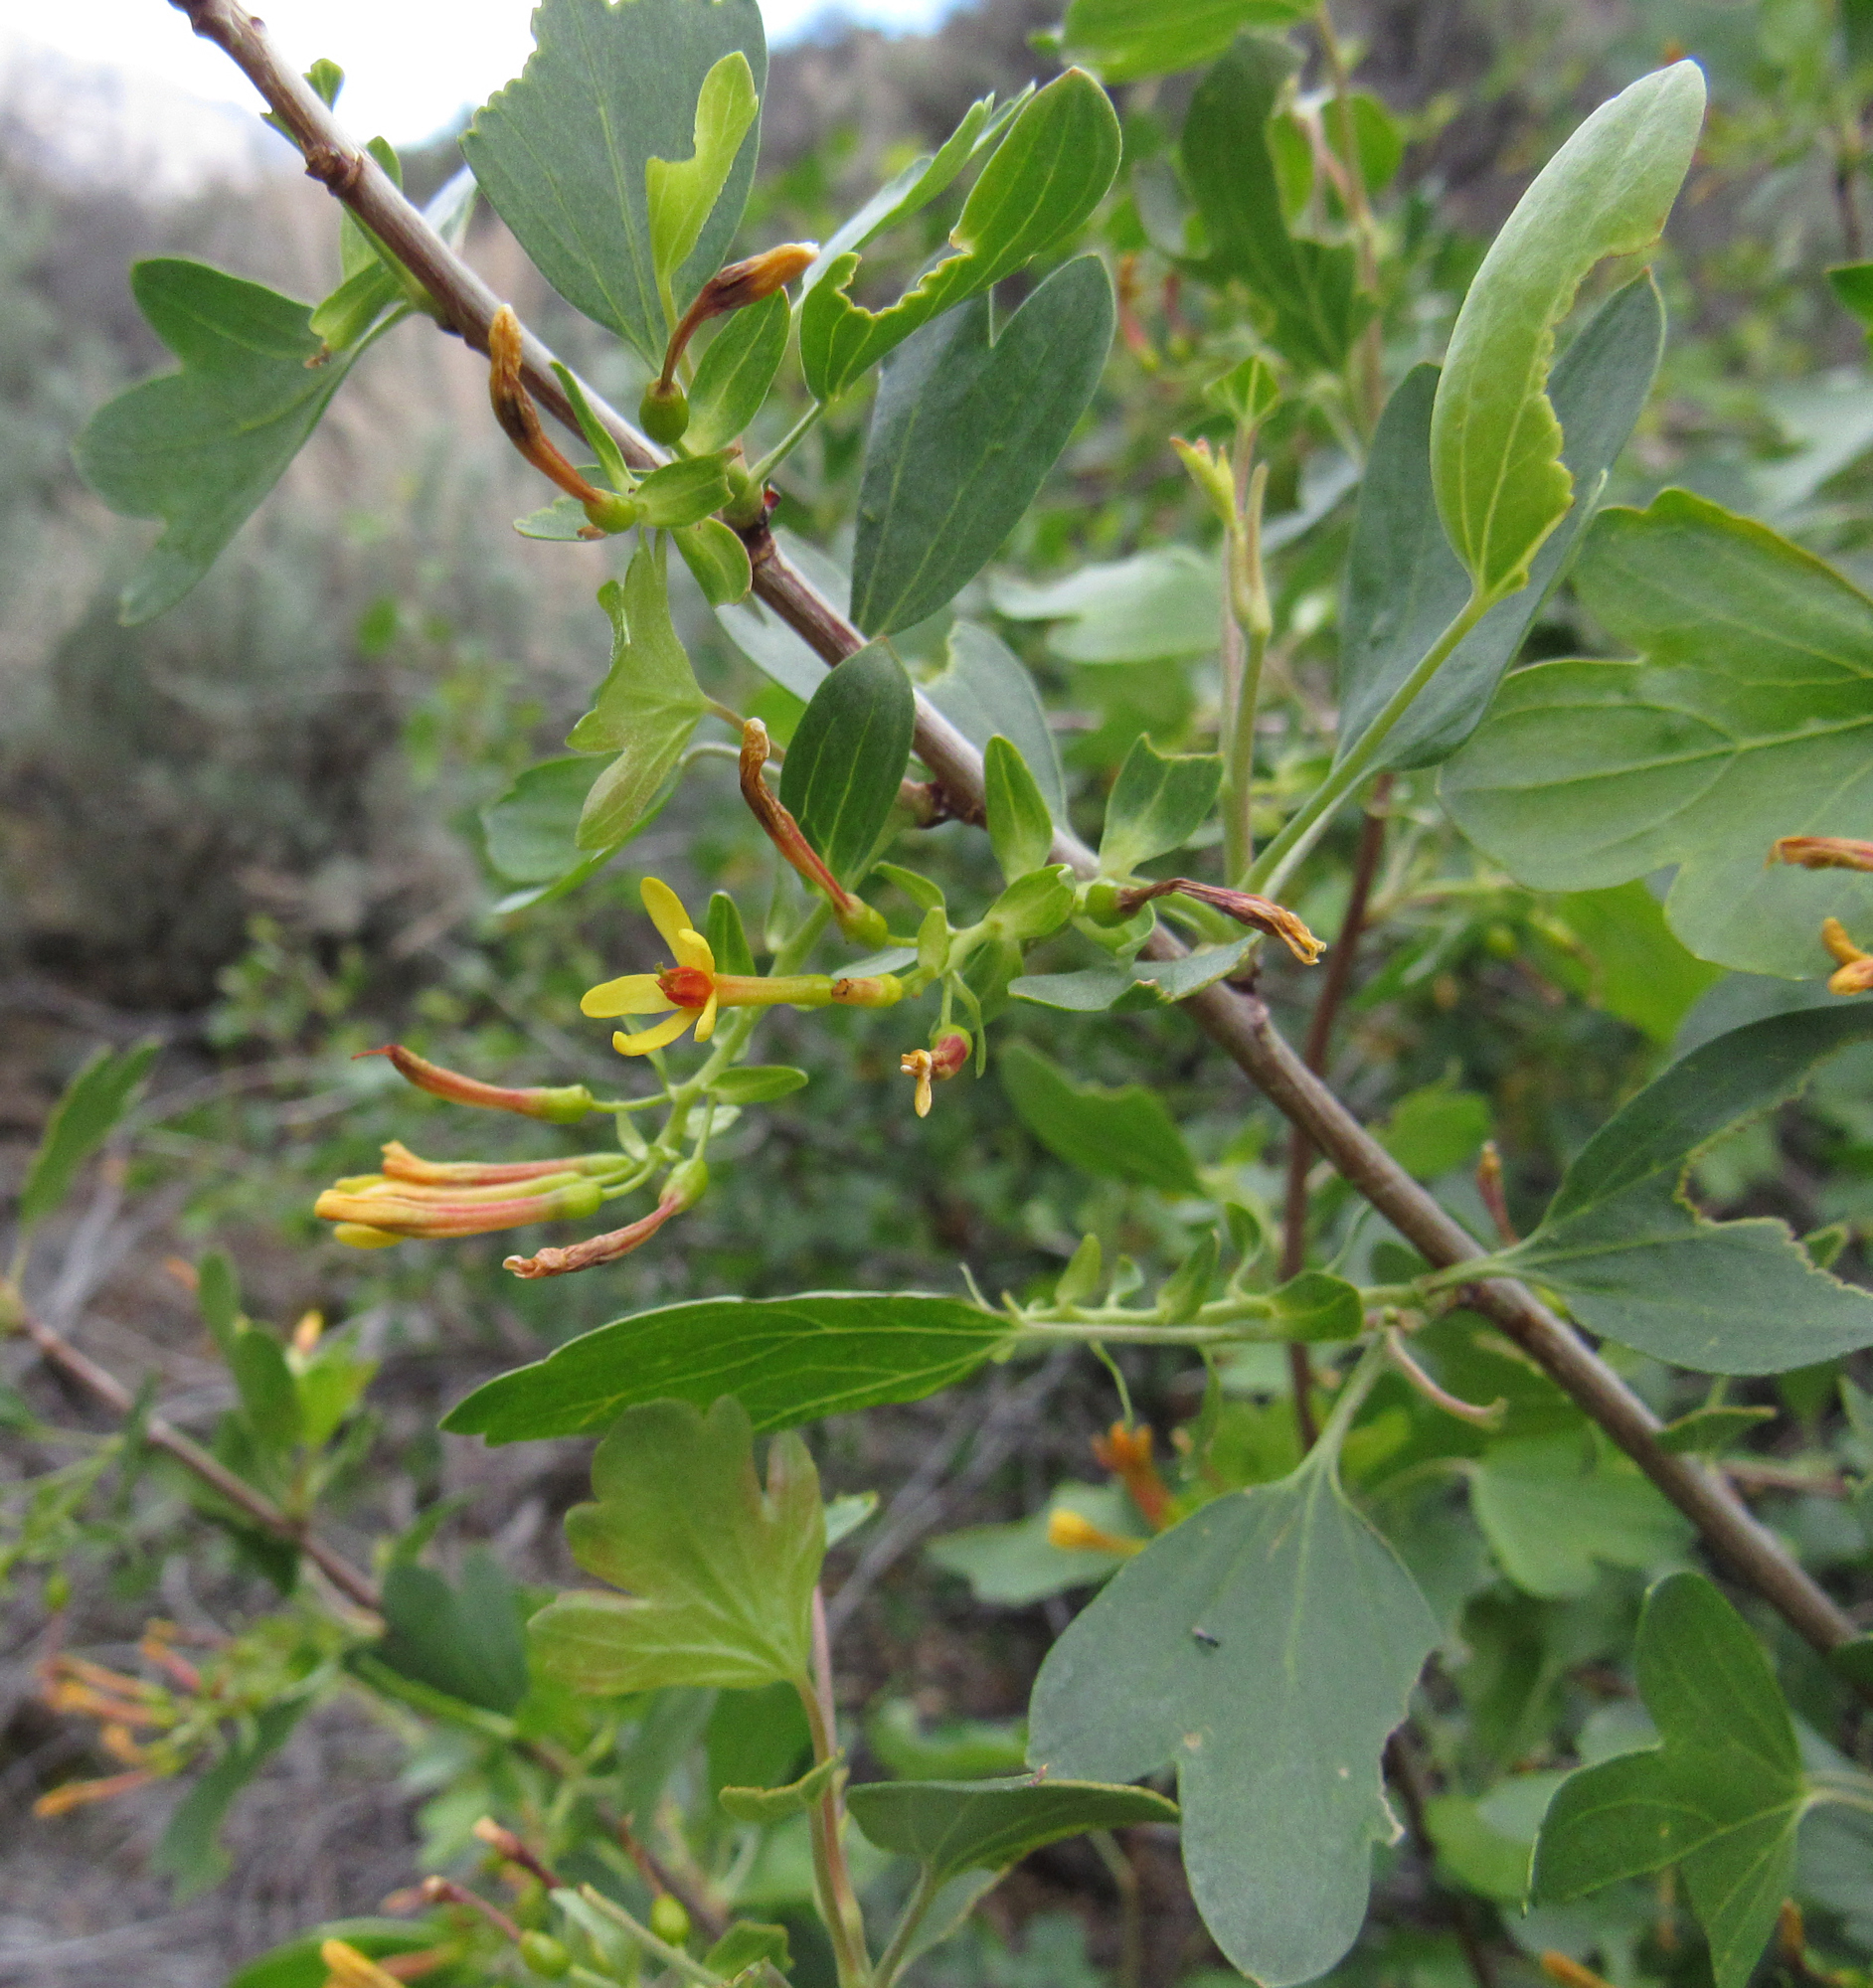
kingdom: Plantae
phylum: Tracheophyta
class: Magnoliopsida
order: Saxifragales
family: Grossulariaceae
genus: Ribes
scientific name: Ribes aureum
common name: Golden currant
